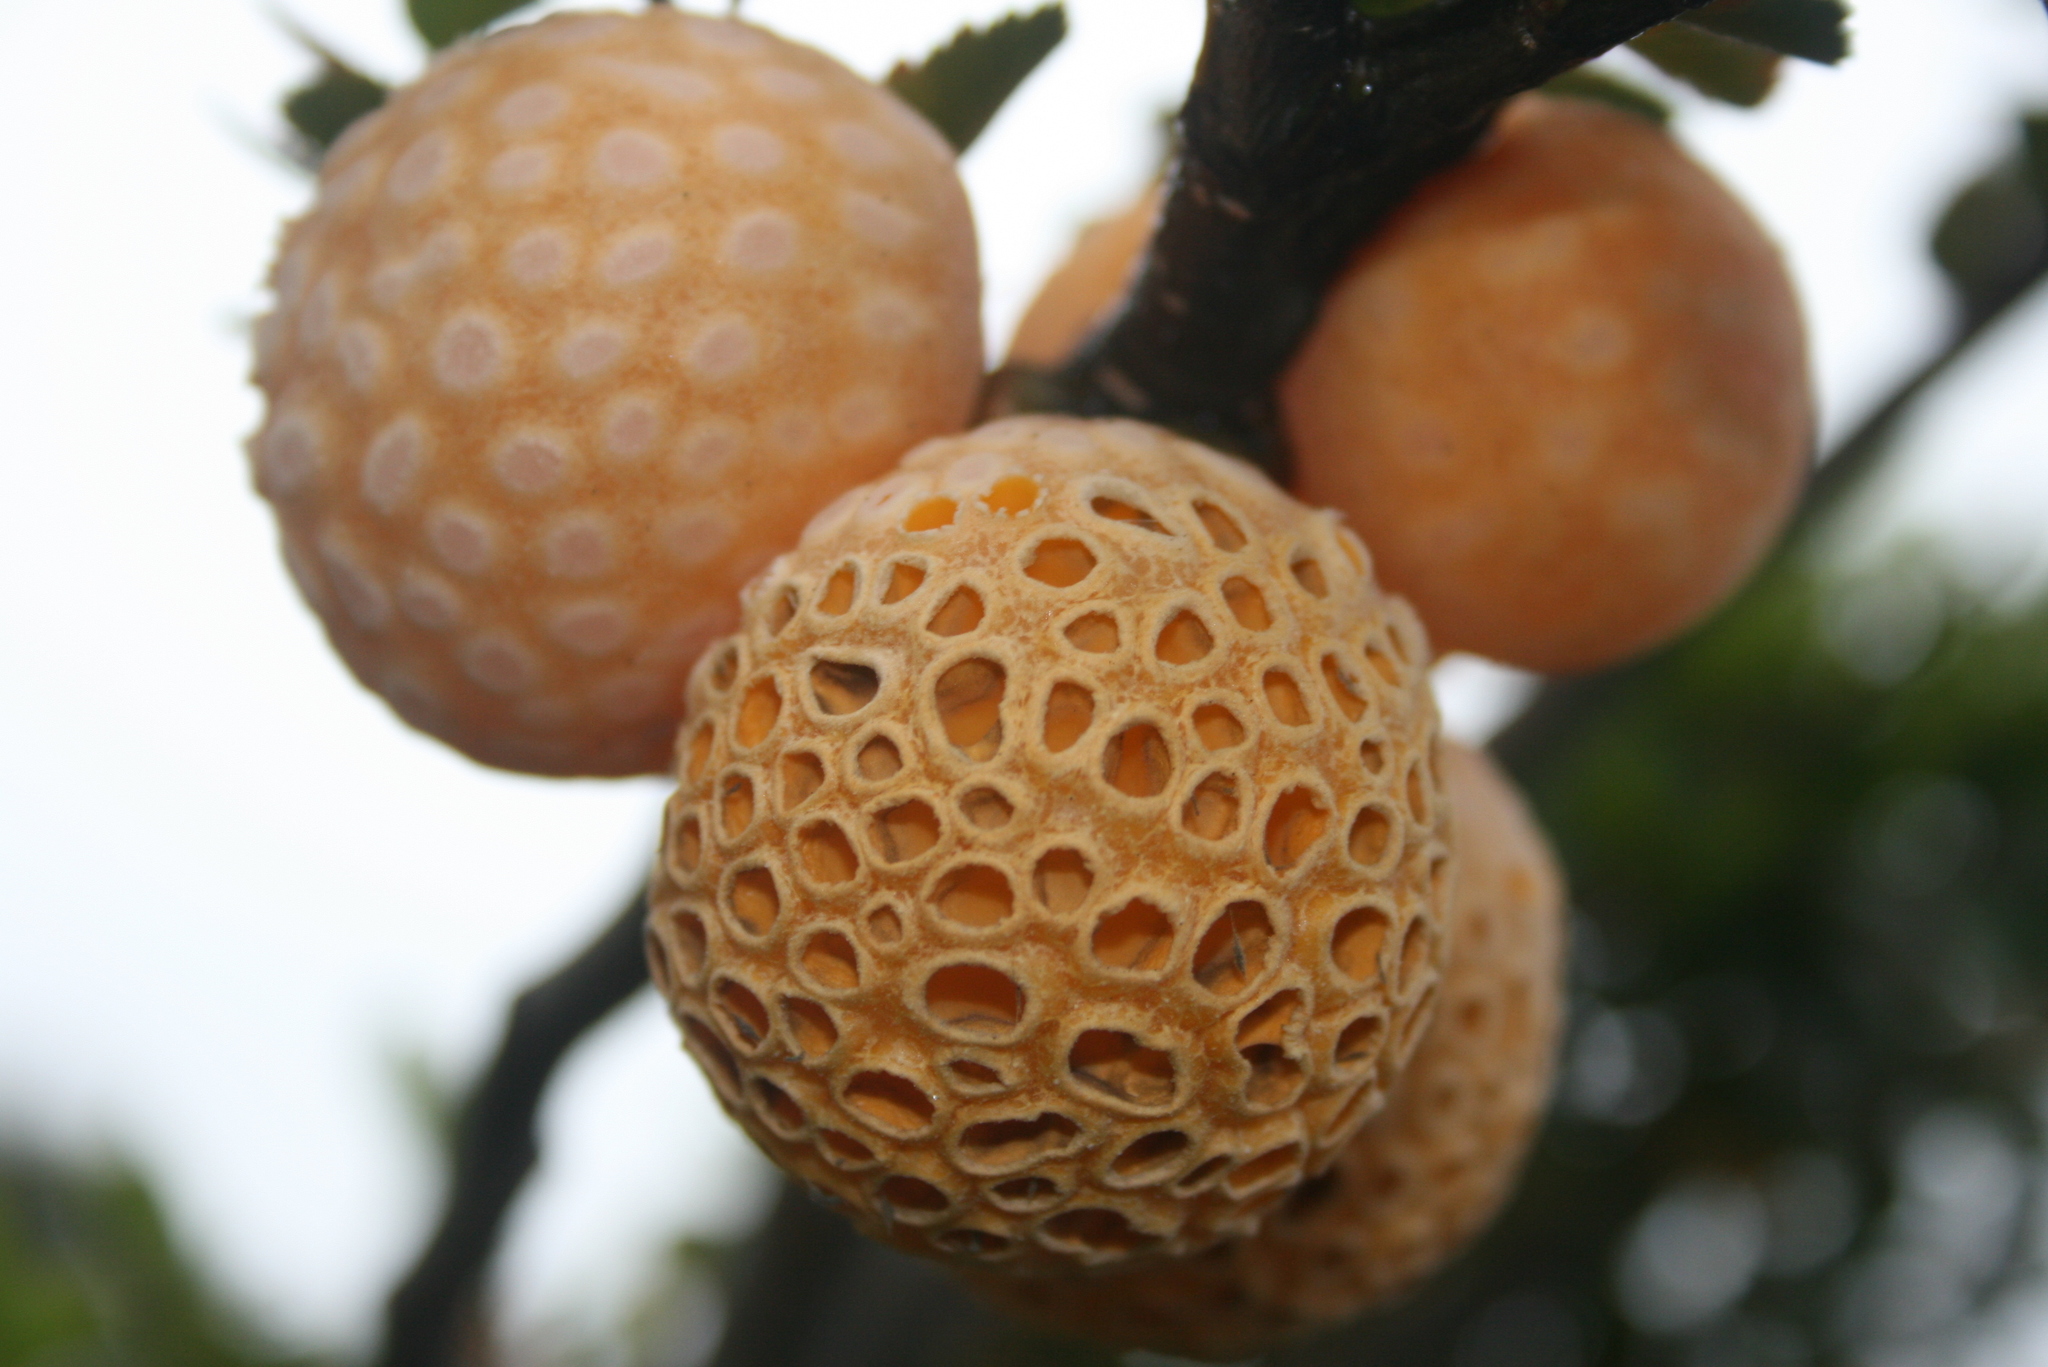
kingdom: Fungi
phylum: Ascomycota
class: Leotiomycetes
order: Cyttariales
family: Cyttariaceae
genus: Cyttaria
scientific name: Cyttaria darwinii
